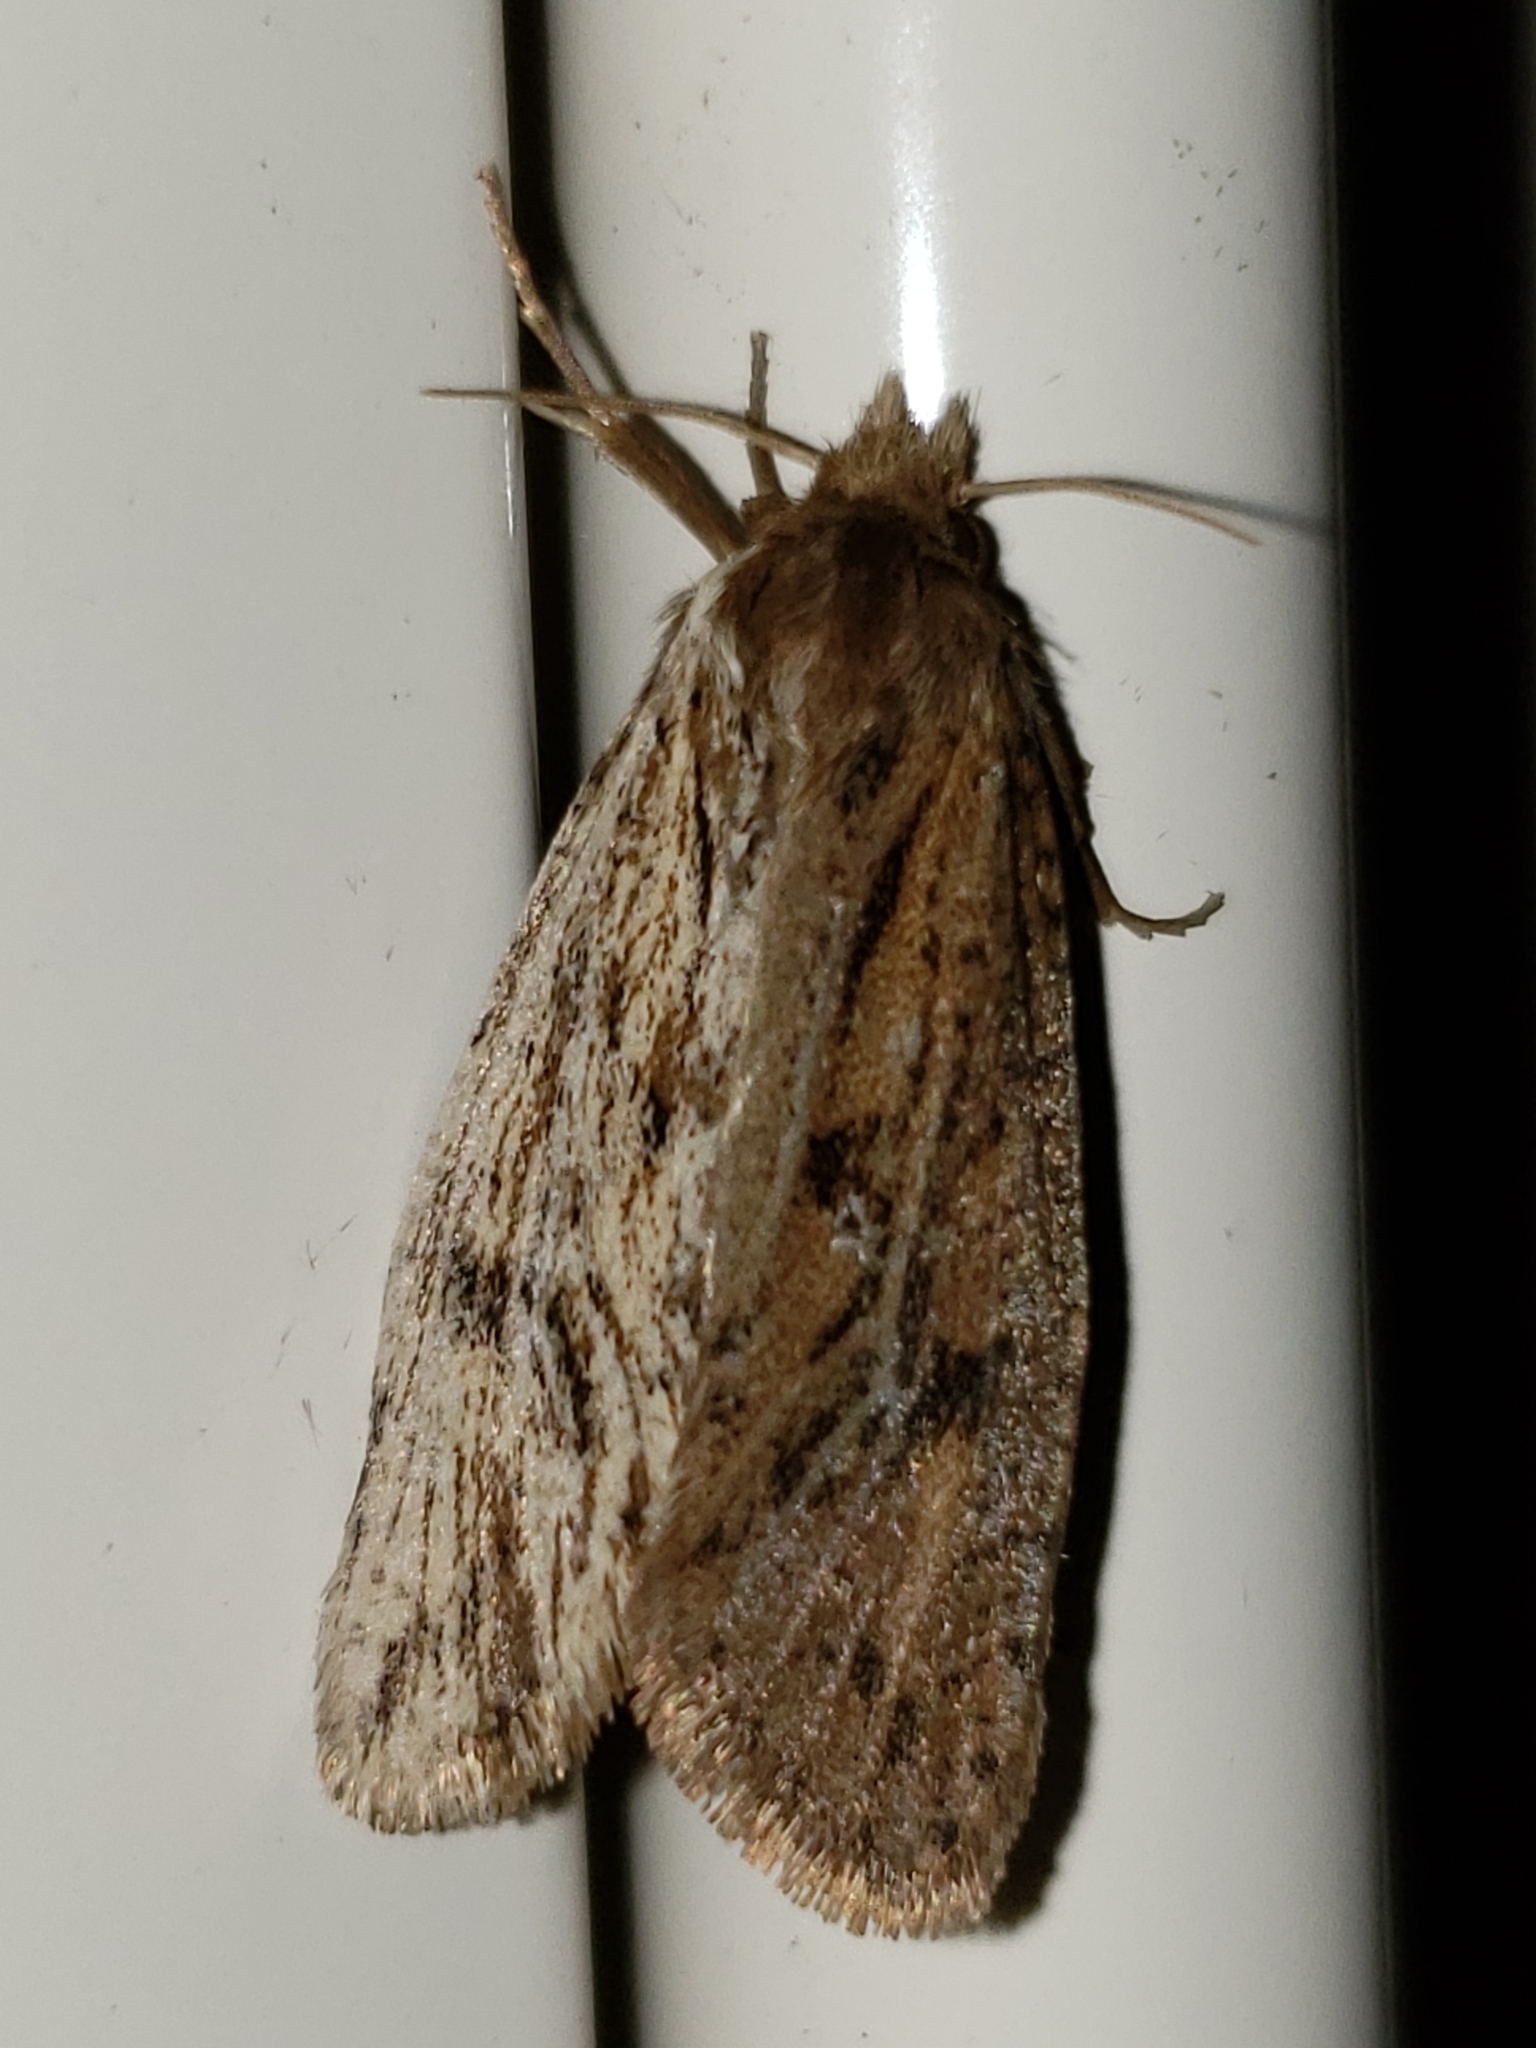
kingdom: Animalia
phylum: Arthropoda
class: Insecta
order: Lepidoptera
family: Noctuidae
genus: Leucania
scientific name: Leucania linda
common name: Linda's wainscot
